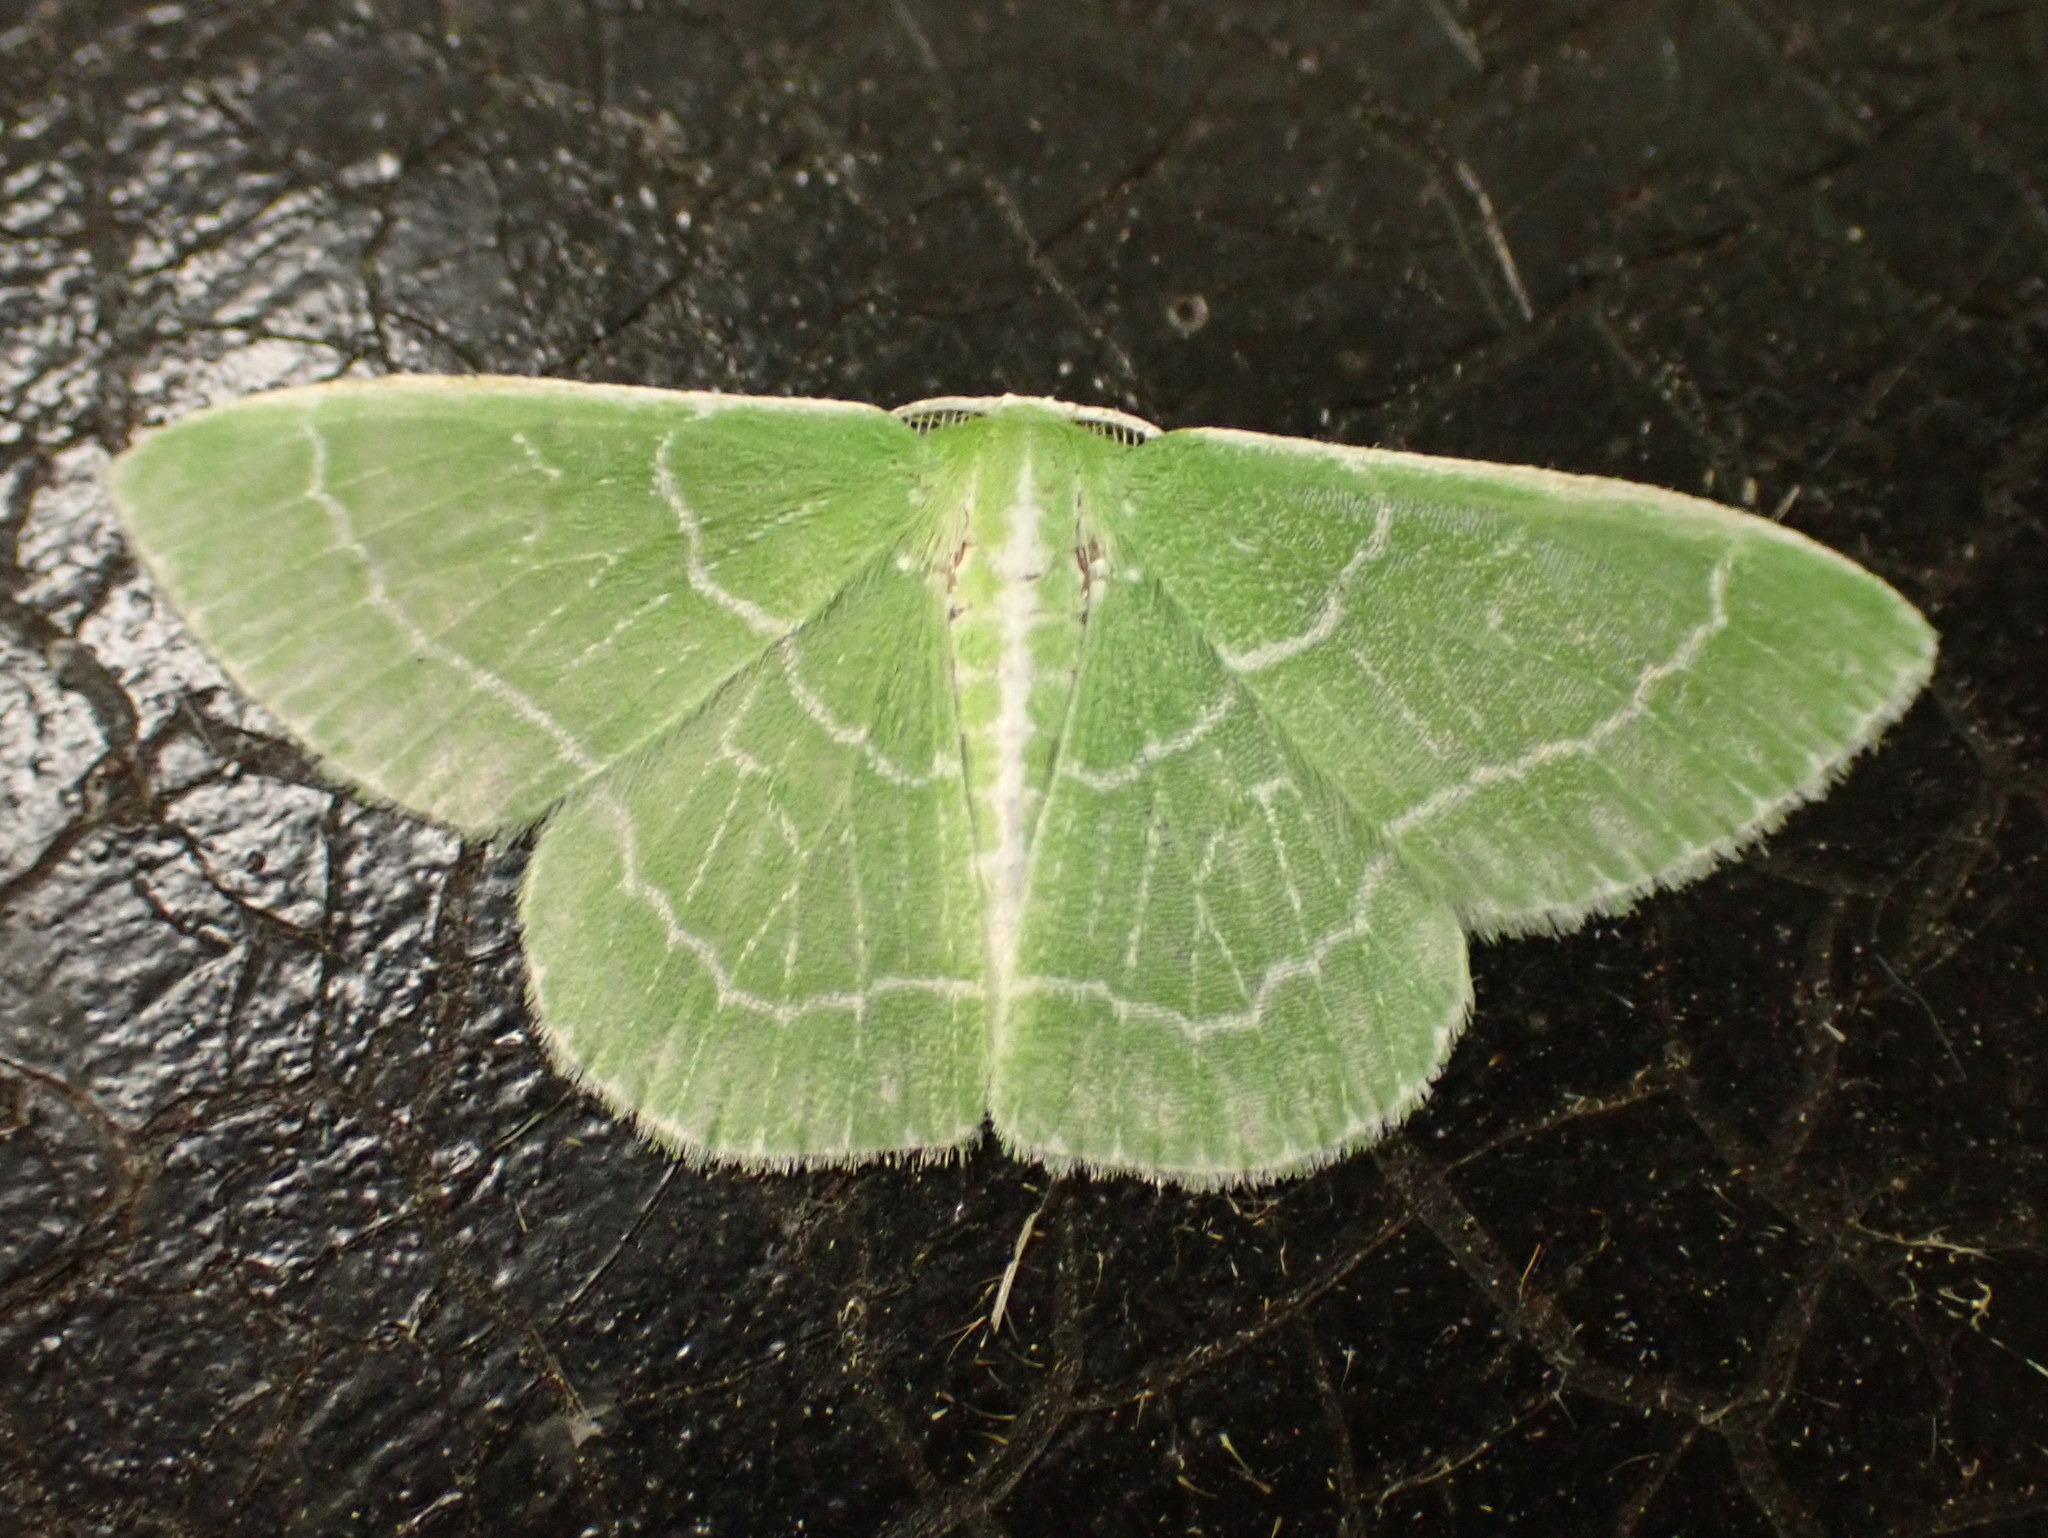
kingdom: Animalia
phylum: Arthropoda
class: Insecta
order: Lepidoptera
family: Geometridae
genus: Synchlora
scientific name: Synchlora aerata
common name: Wavy-lined emerald
